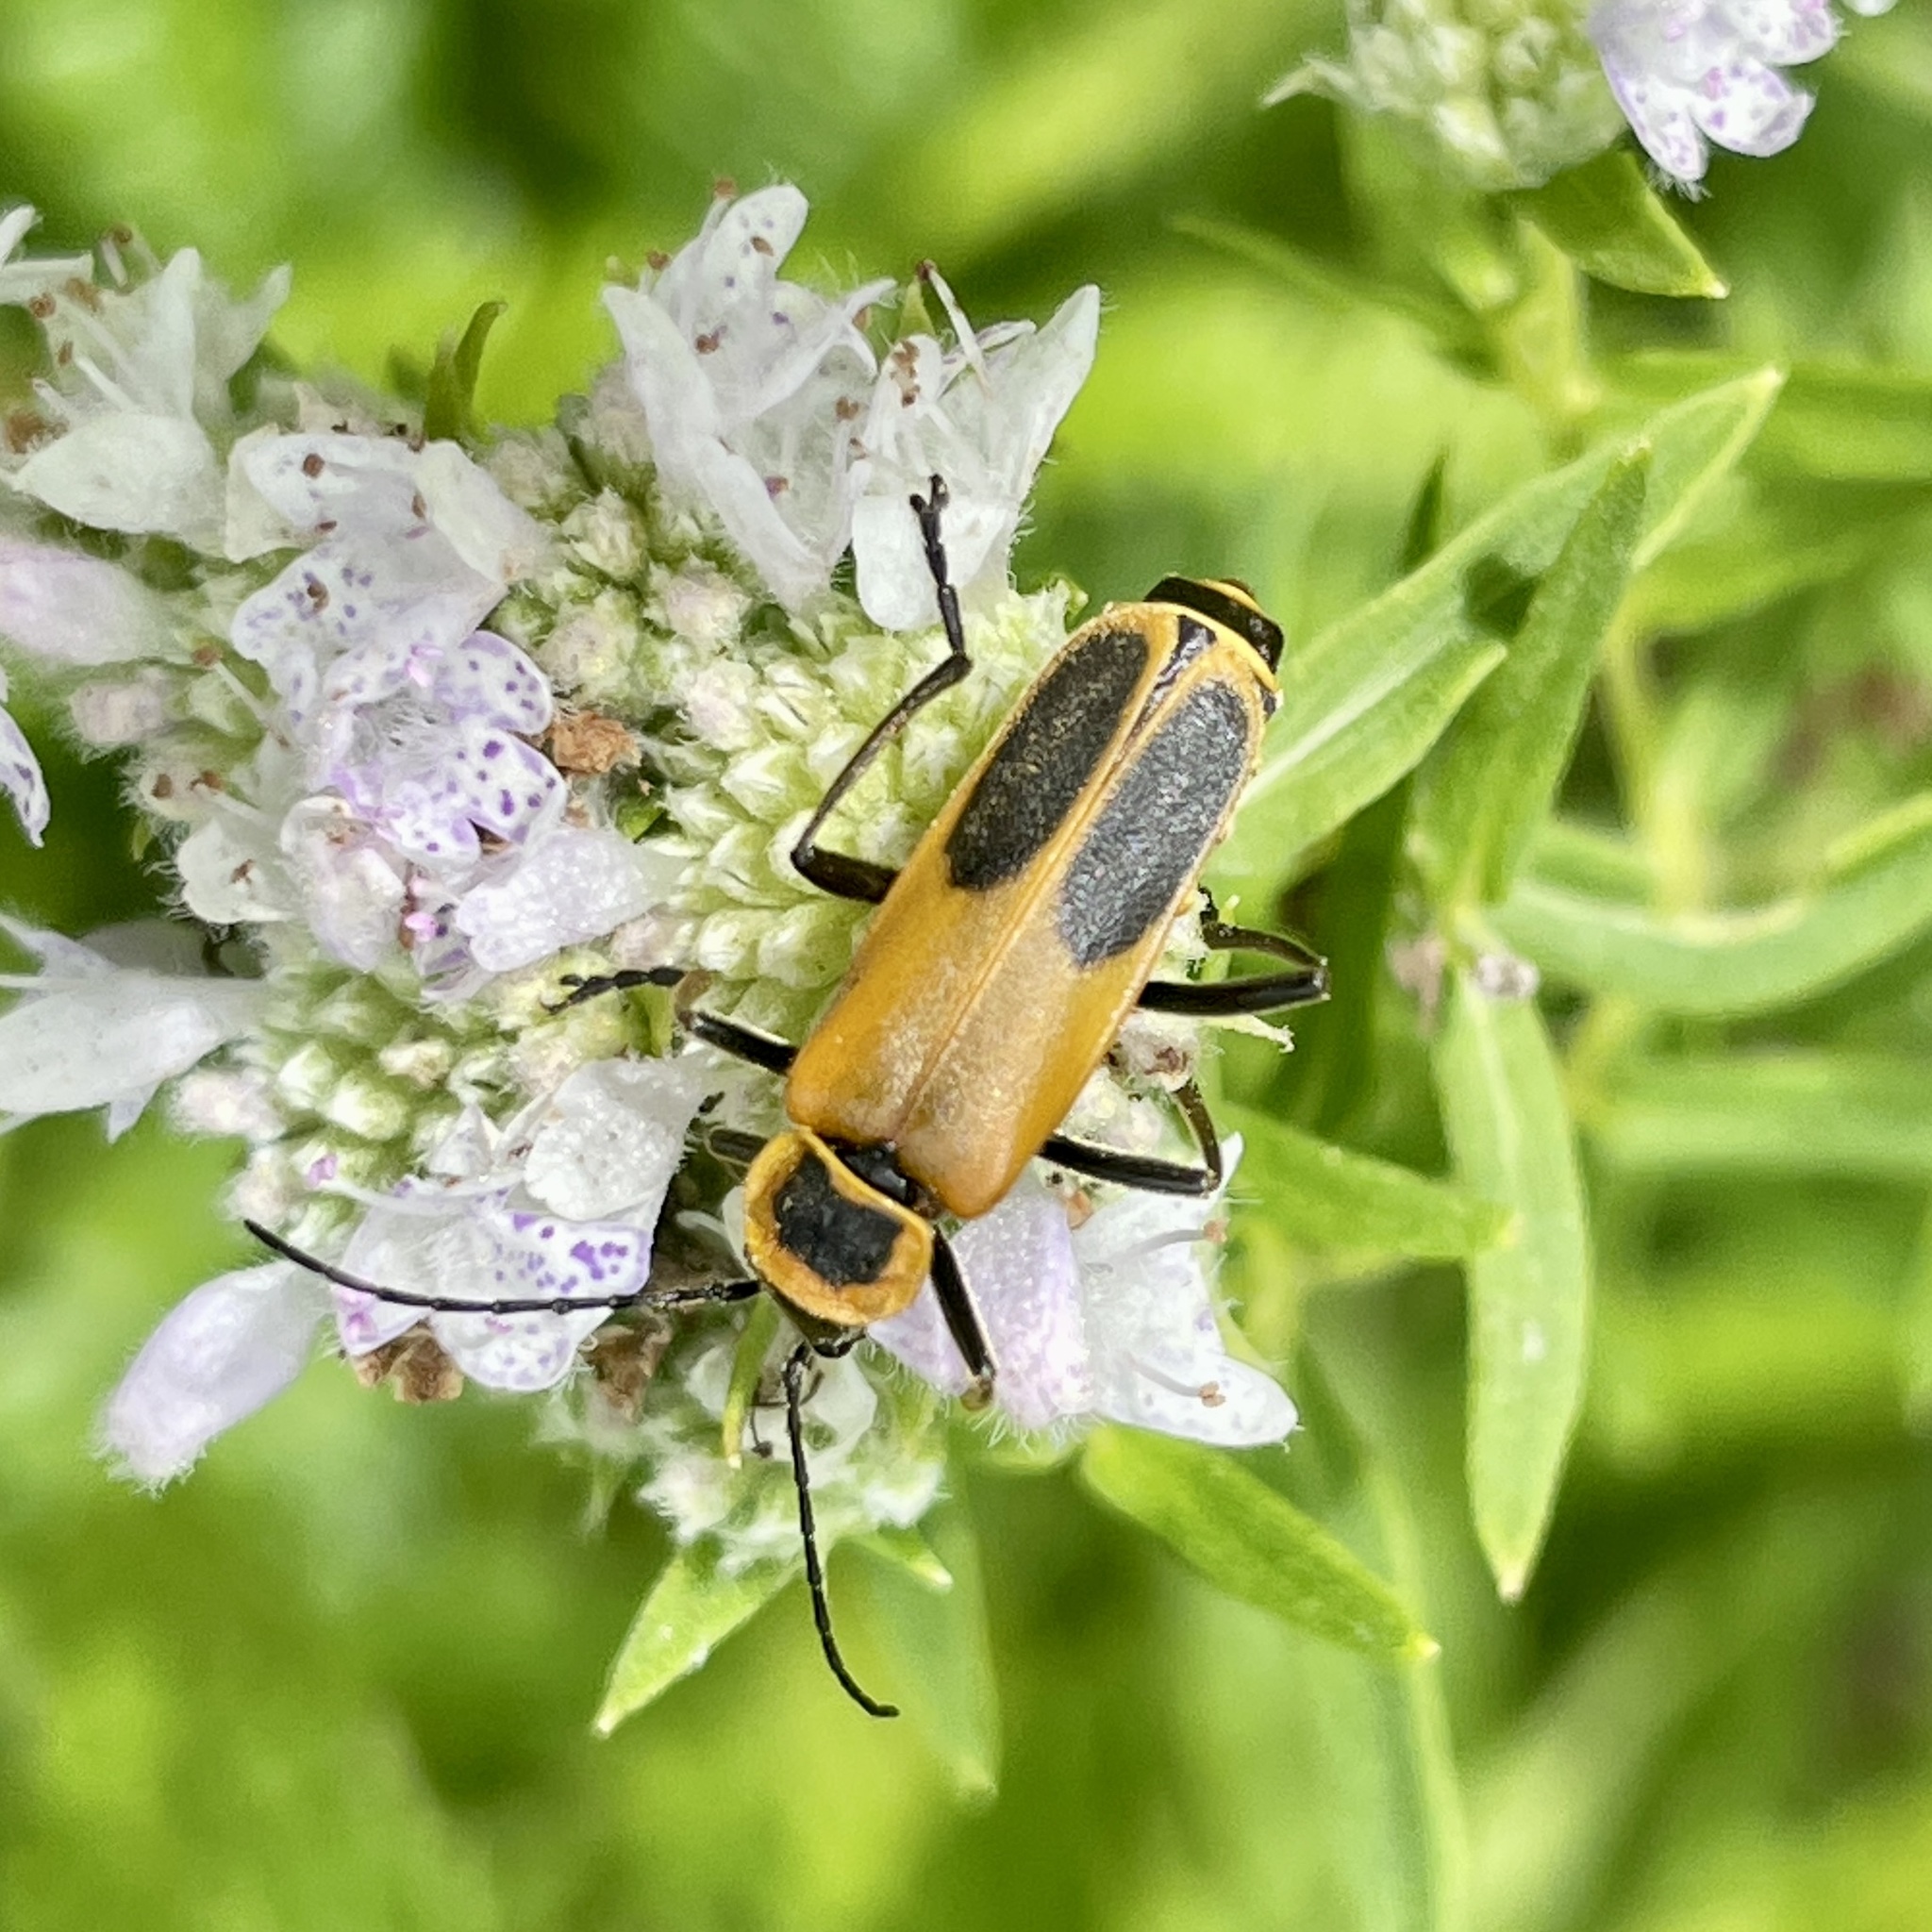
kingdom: Animalia
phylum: Arthropoda
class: Insecta
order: Coleoptera
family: Cantharidae
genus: Chauliognathus
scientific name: Chauliognathus pensylvanicus
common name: Goldenrod soldier beetle
